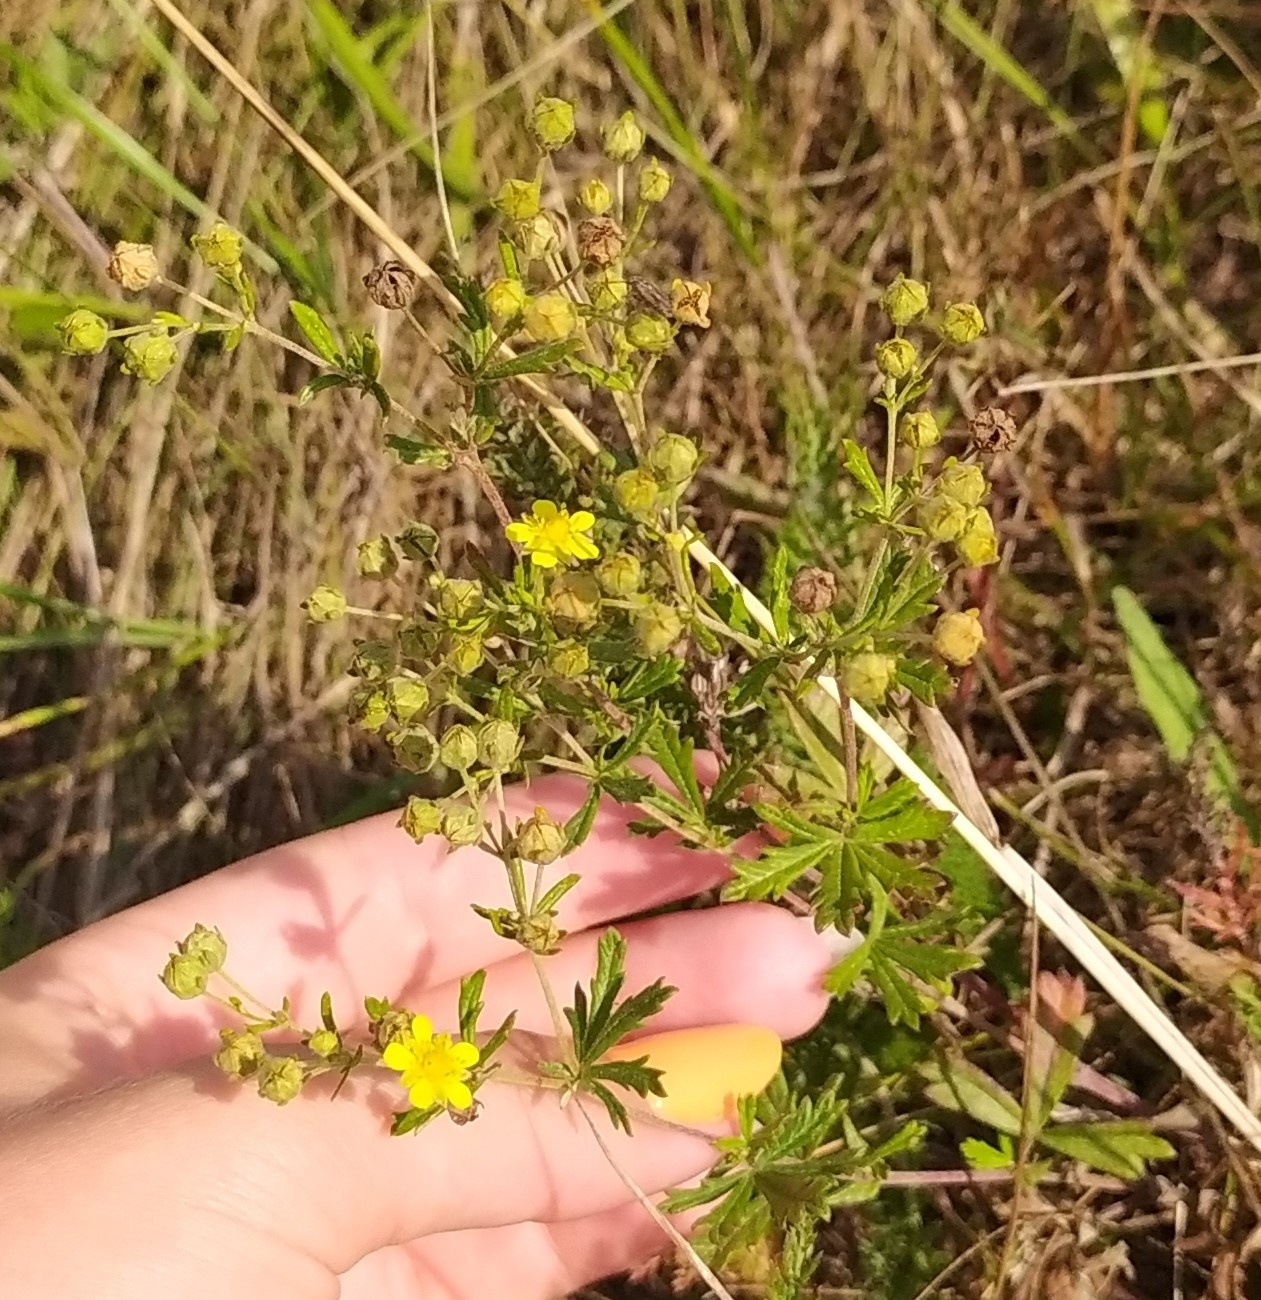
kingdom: Plantae
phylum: Tracheophyta
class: Magnoliopsida
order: Rosales
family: Rosaceae
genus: Potentilla
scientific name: Potentilla argentea
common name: Hoary cinquefoil
